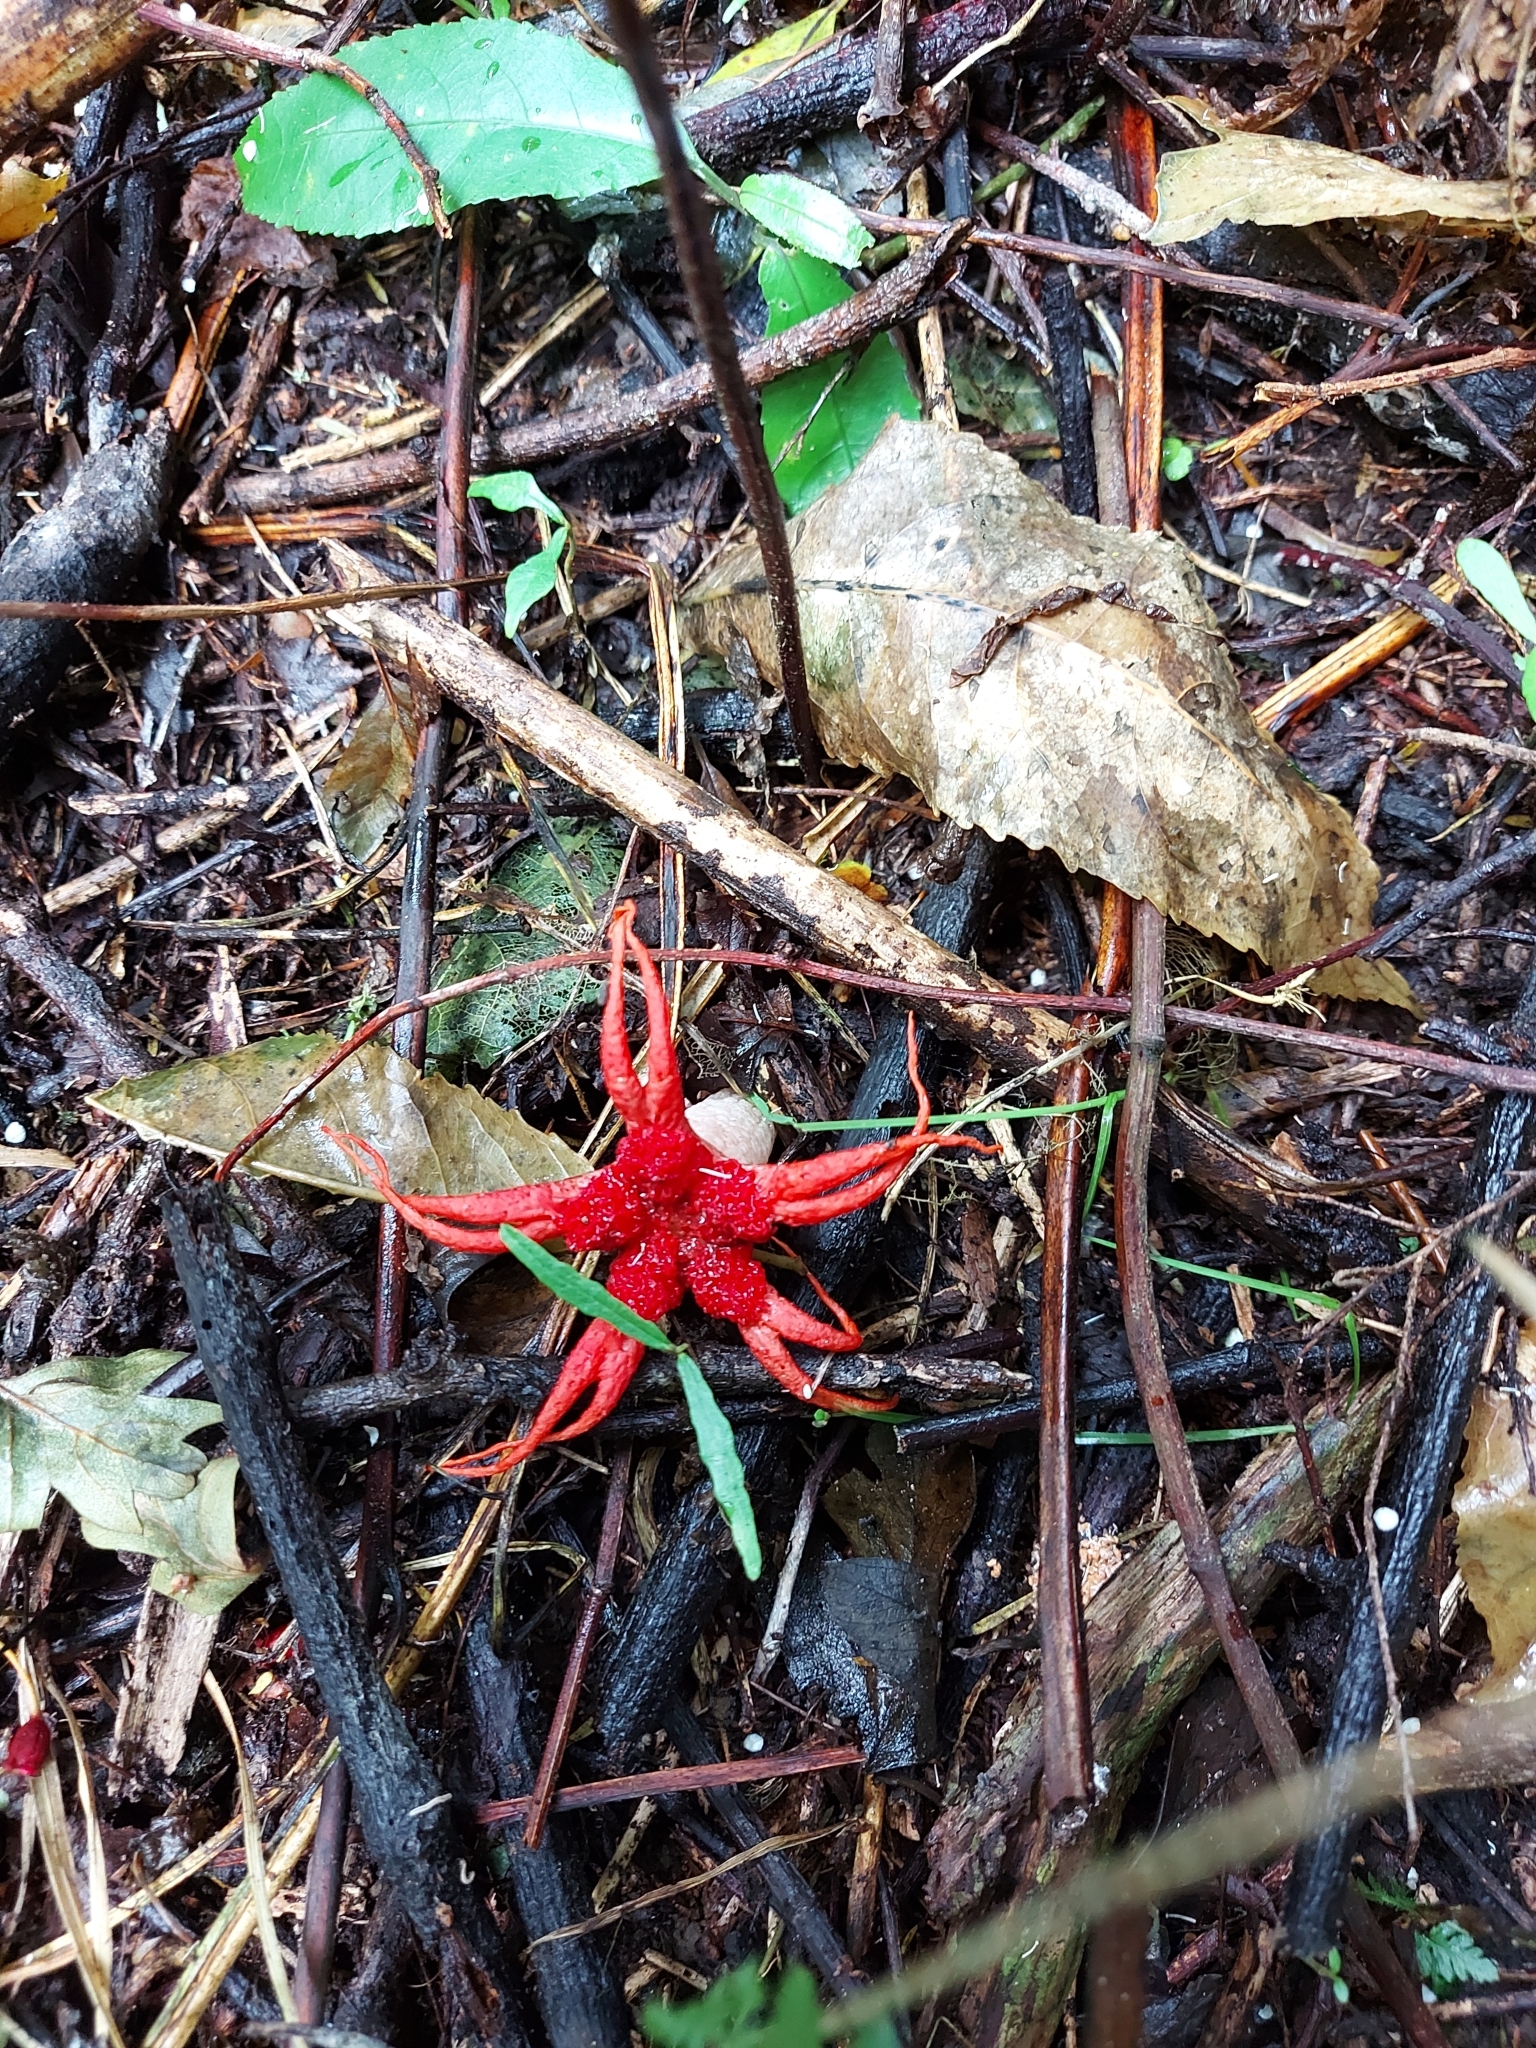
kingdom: Fungi
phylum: Basidiomycota
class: Agaricomycetes
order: Phallales
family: Phallaceae
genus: Aseroe
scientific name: Aseroe rubra
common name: Starfish fungus
